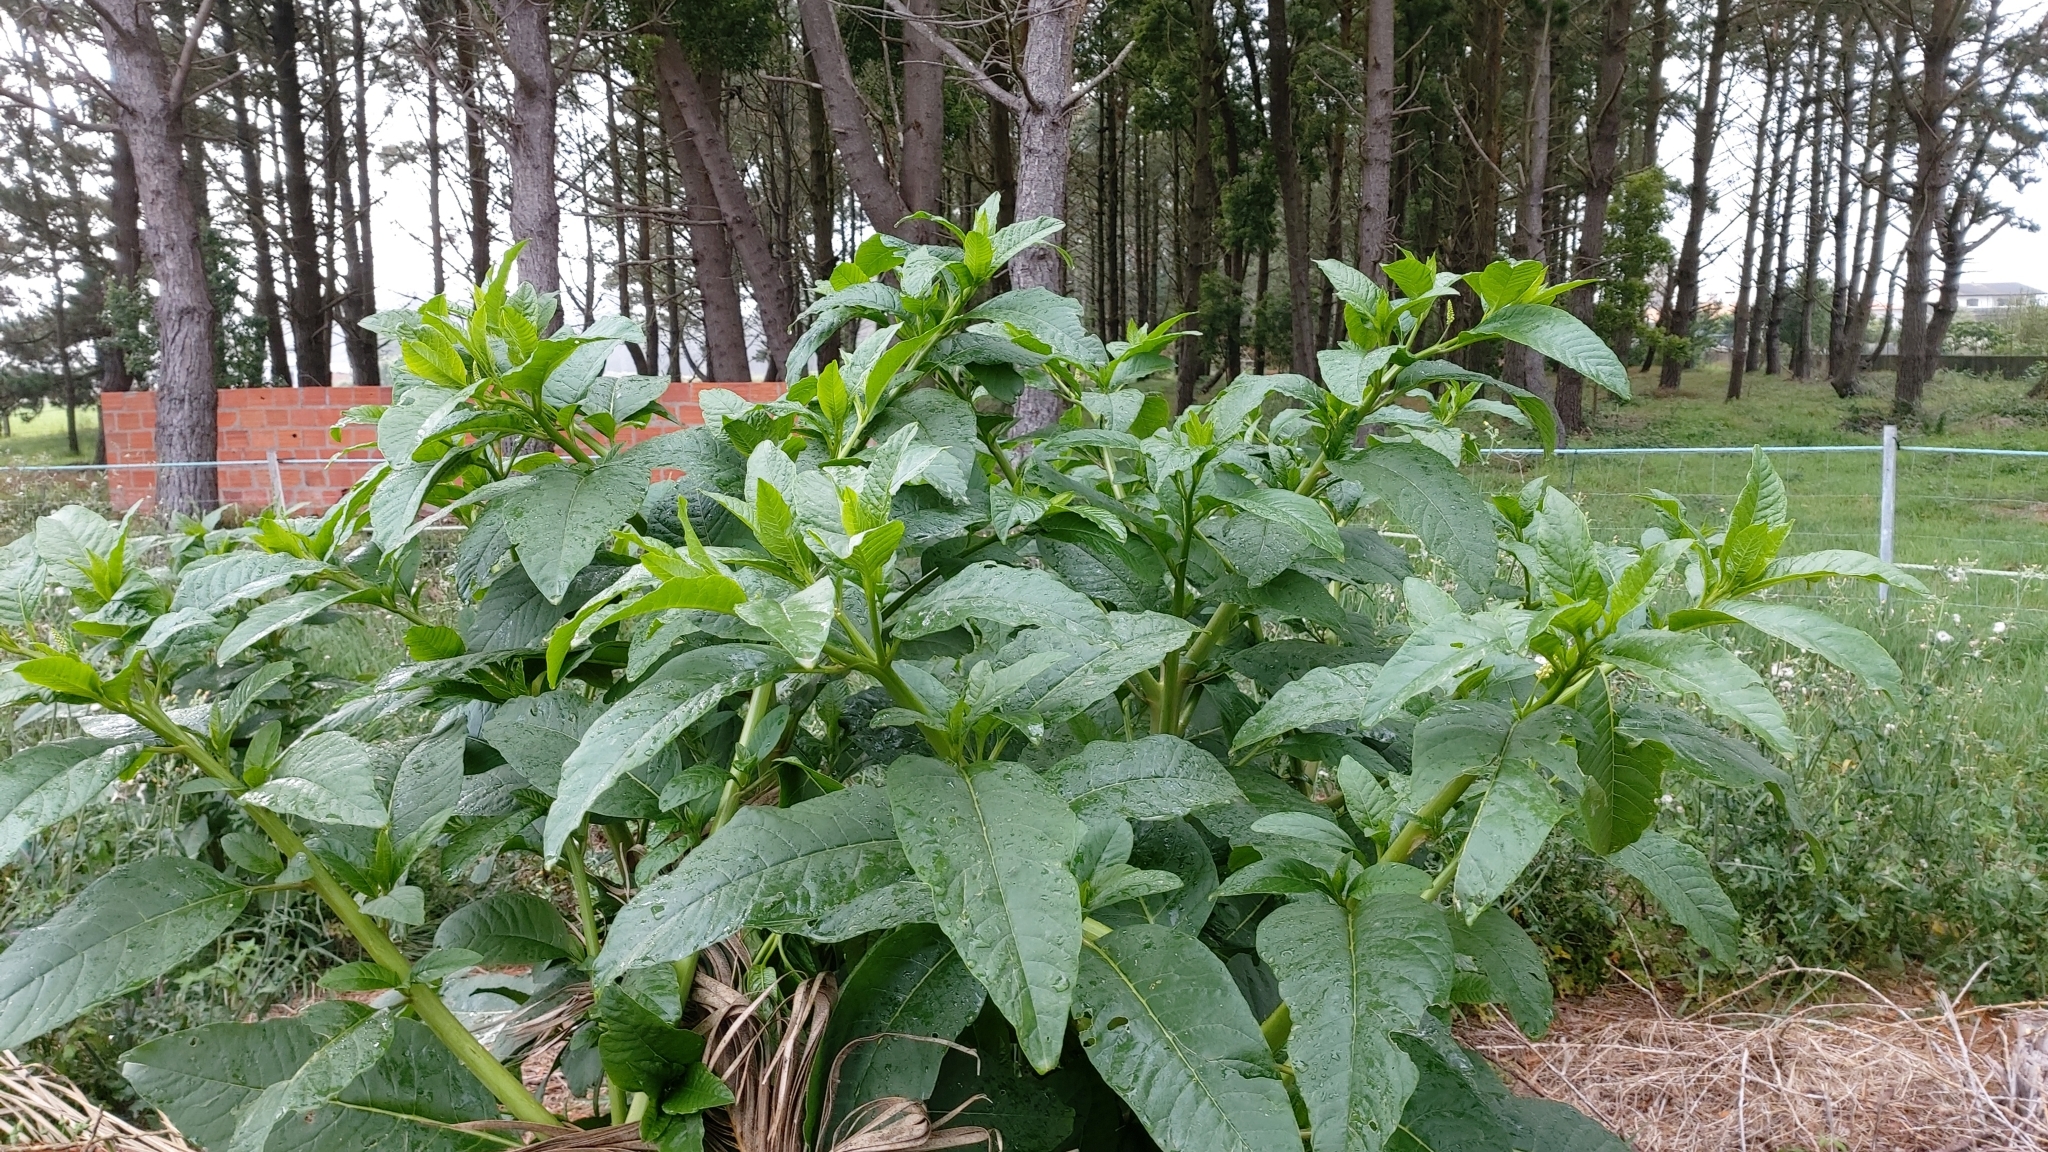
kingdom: Plantae
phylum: Tracheophyta
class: Magnoliopsida
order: Caryophyllales
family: Phytolaccaceae
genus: Phytolacca
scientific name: Phytolacca americana
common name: American pokeweed
